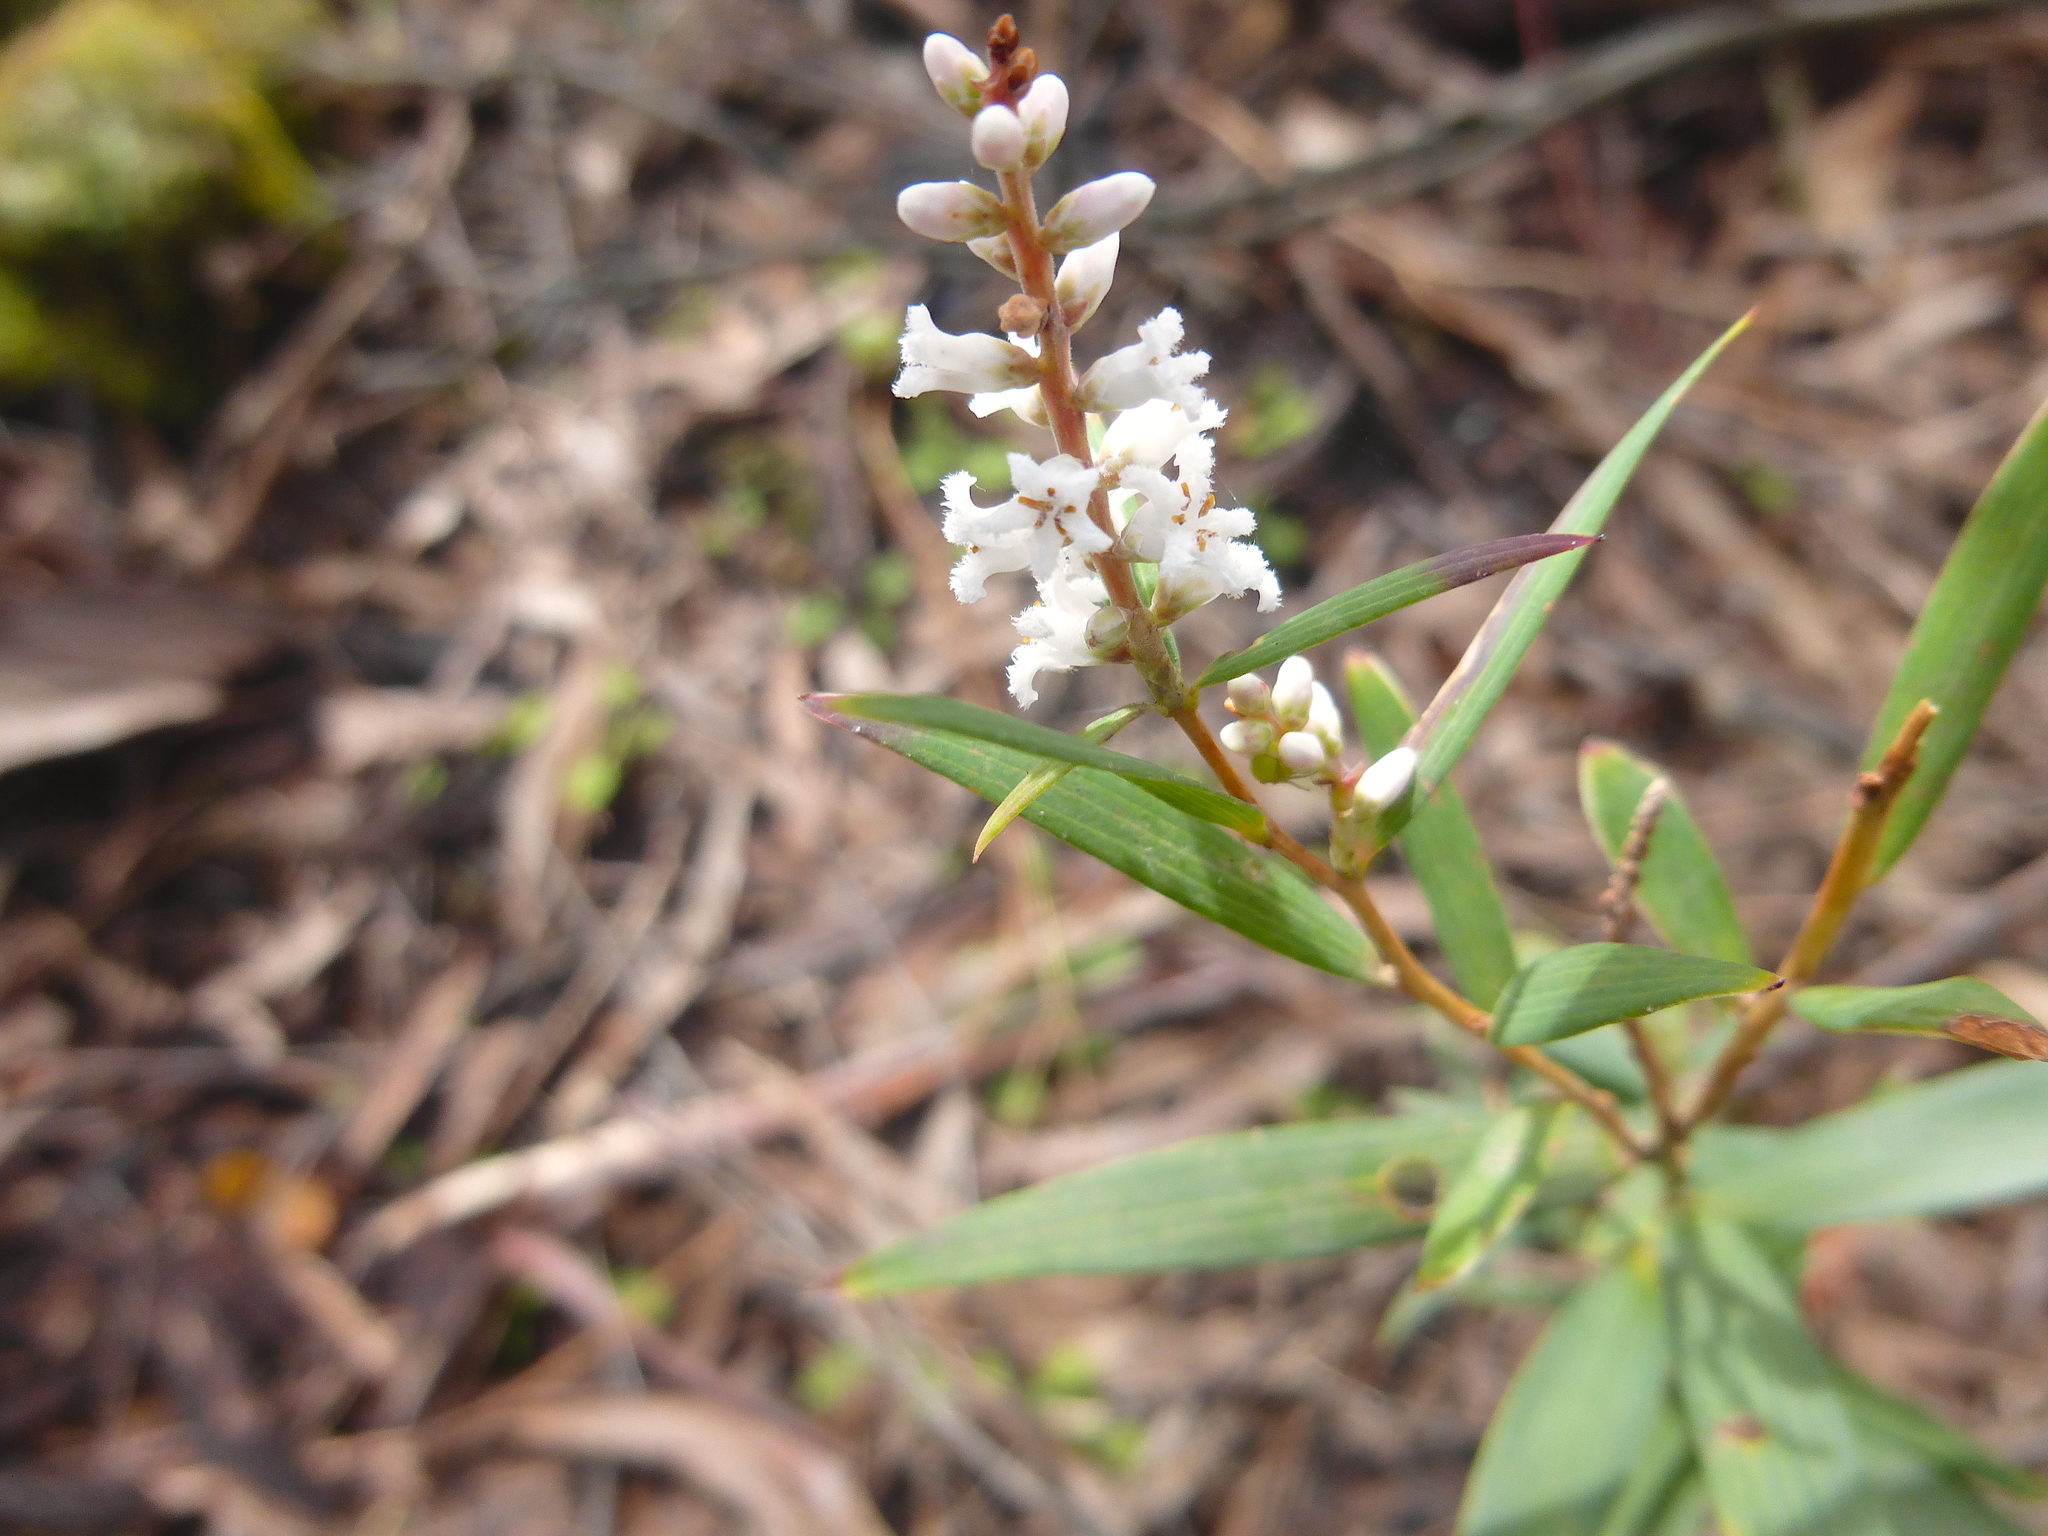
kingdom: Plantae
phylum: Tracheophyta
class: Magnoliopsida
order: Ericales
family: Ericaceae
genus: Leucopogon
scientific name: Leucopogon australis
